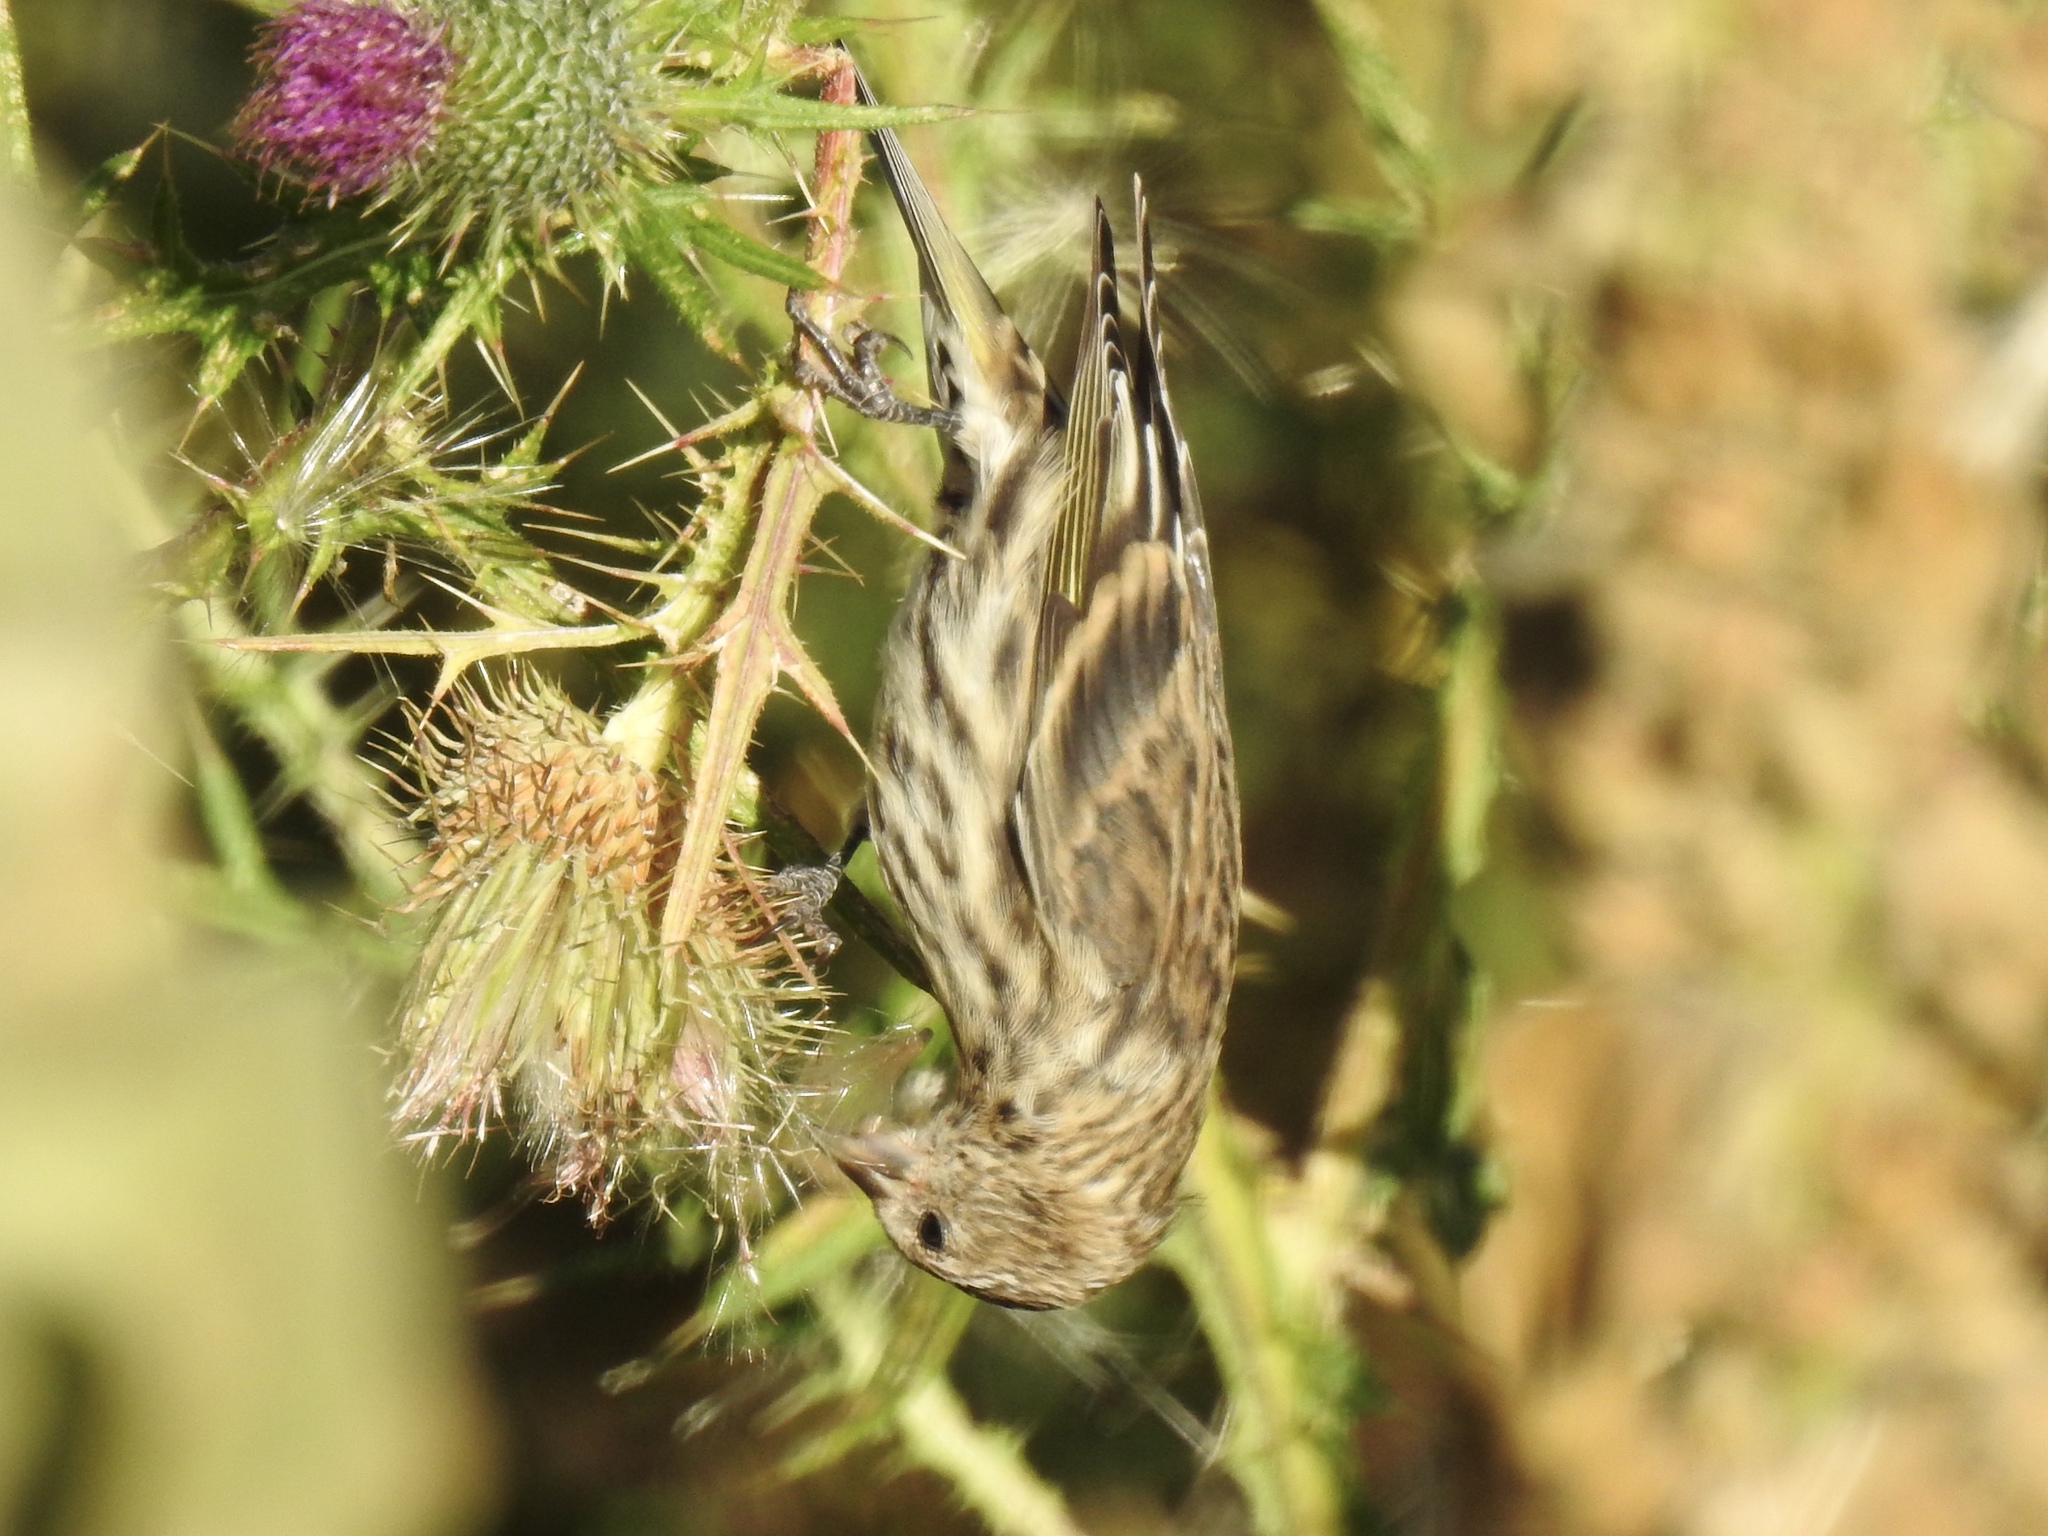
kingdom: Animalia
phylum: Chordata
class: Aves
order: Passeriformes
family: Fringillidae
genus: Spinus
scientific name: Spinus pinus
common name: Pine siskin
